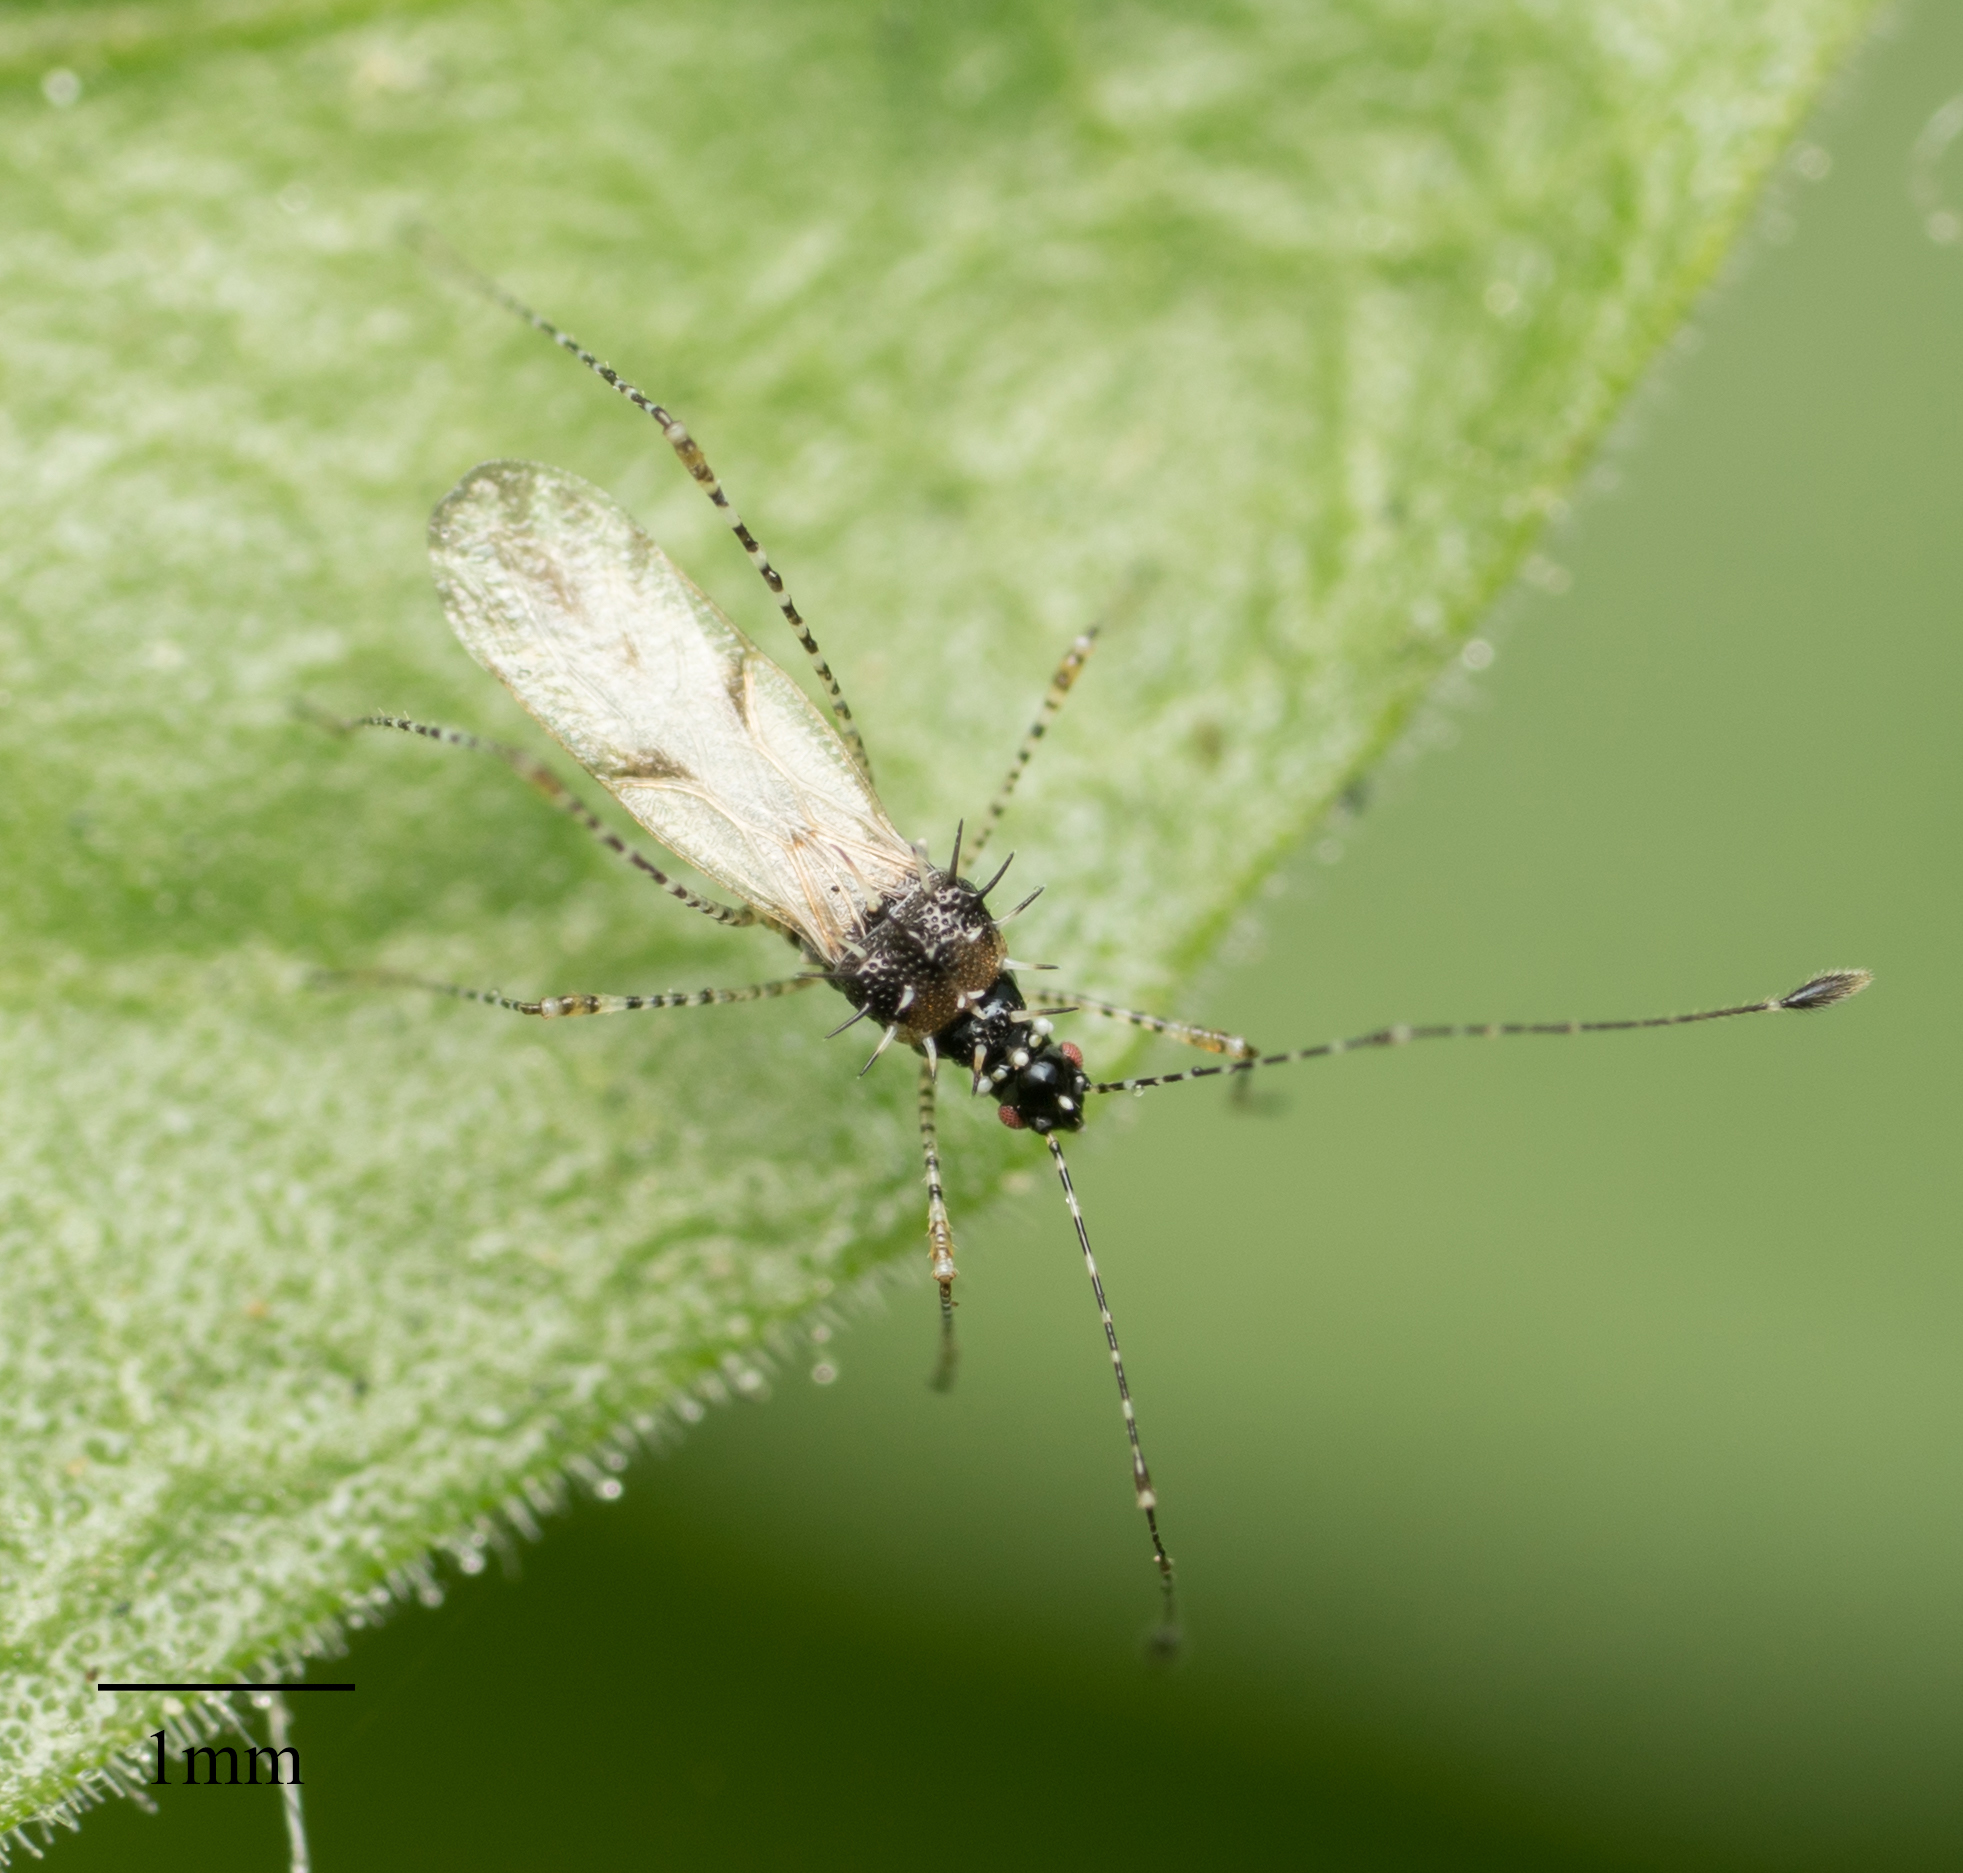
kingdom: Animalia
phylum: Arthropoda
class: Insecta
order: Hemiptera
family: Berytidae
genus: Pronotacantha
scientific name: Pronotacantha annulata
